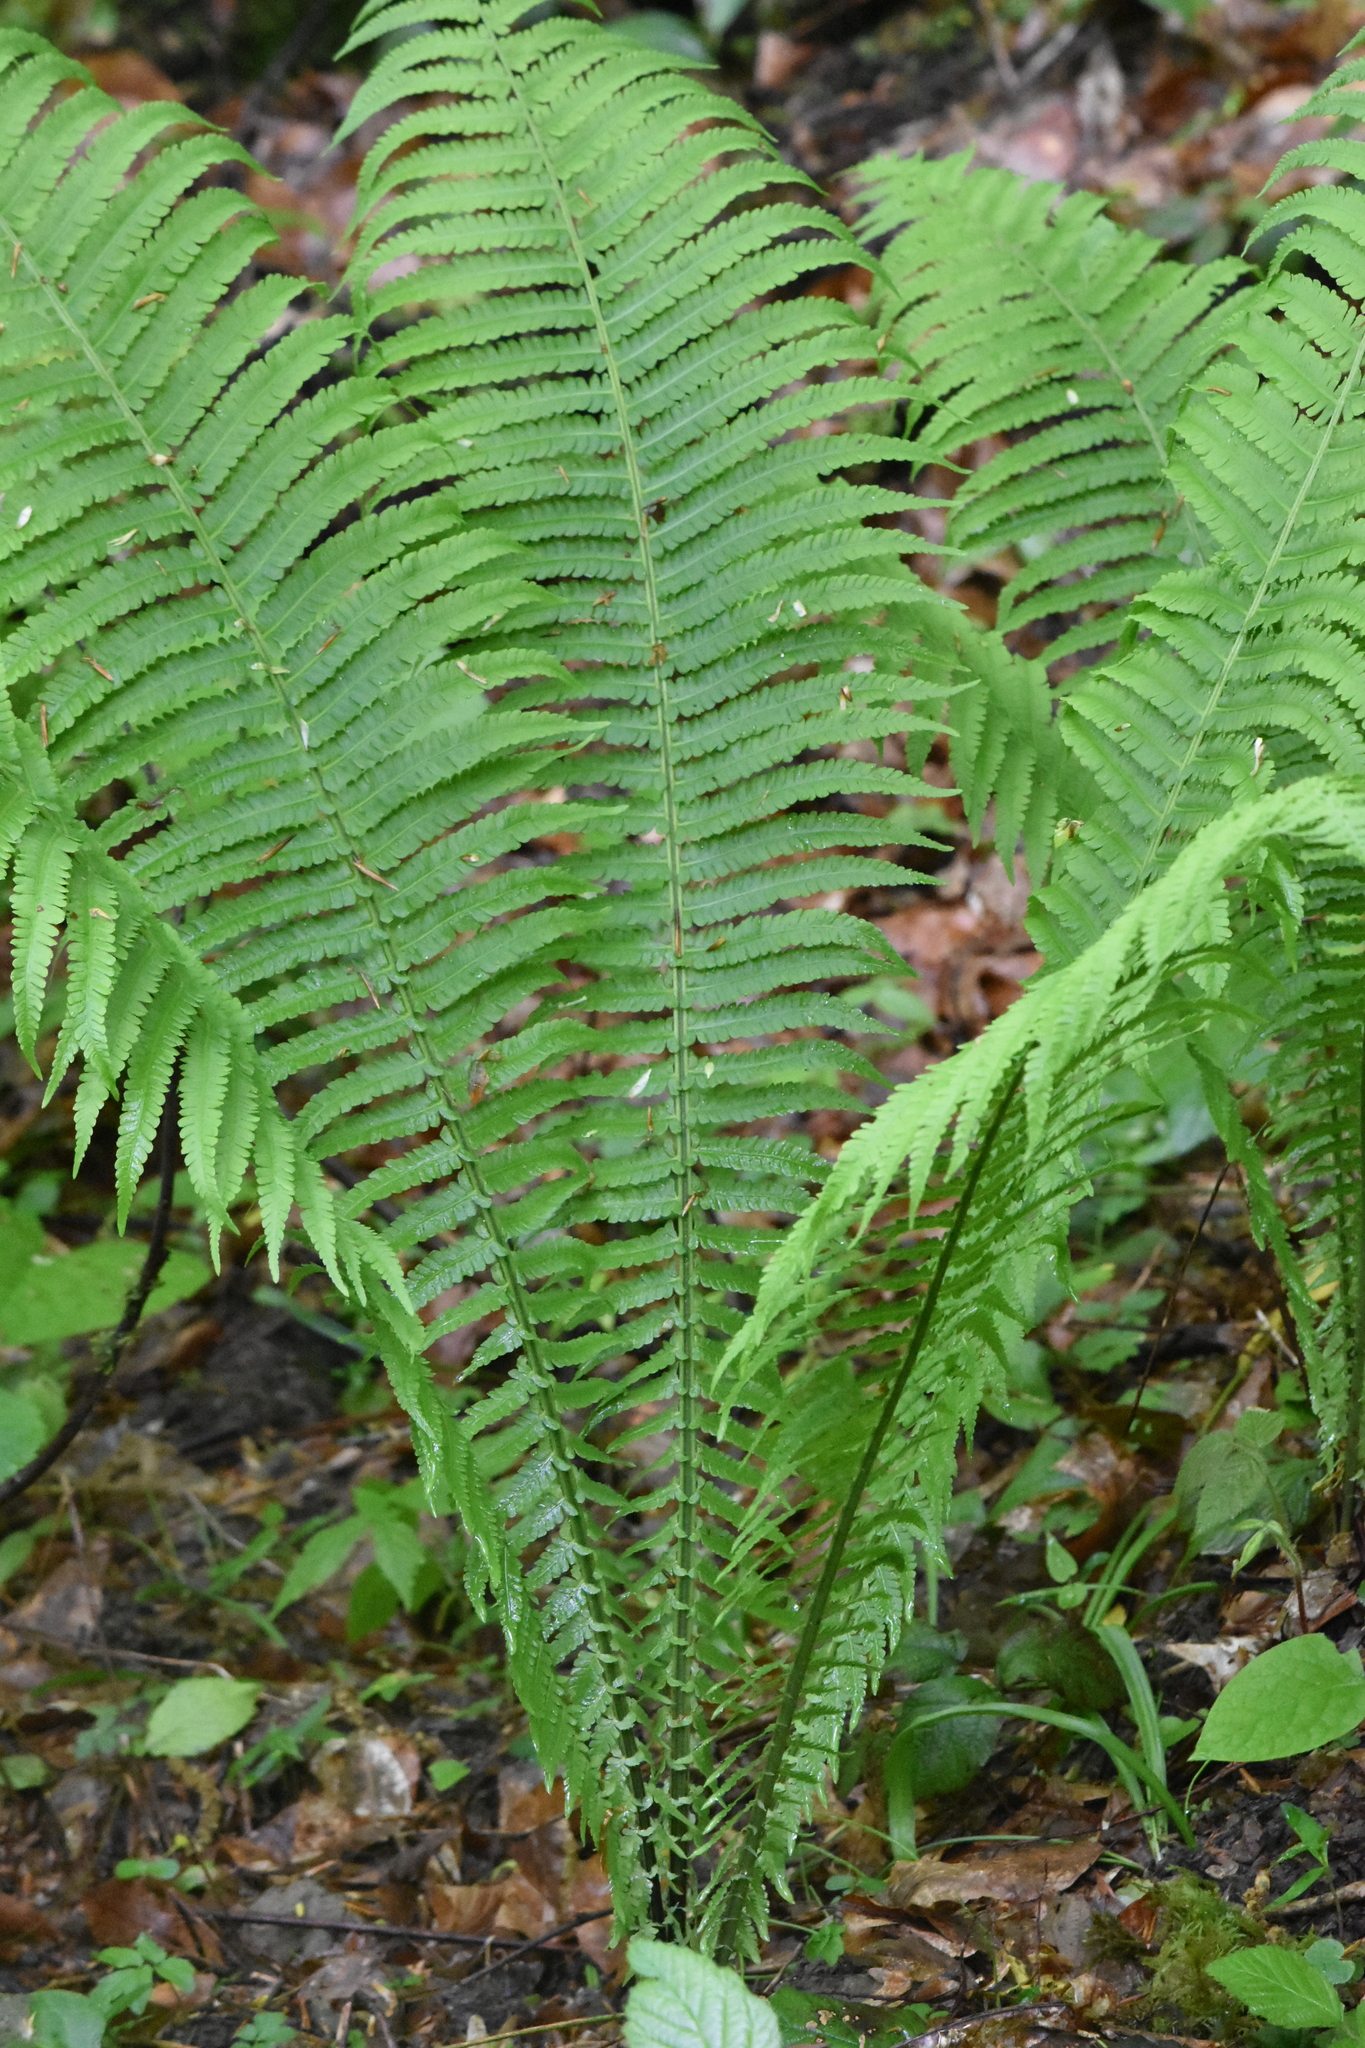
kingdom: Plantae
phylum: Tracheophyta
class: Polypodiopsida
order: Polypodiales
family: Onocleaceae
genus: Matteuccia
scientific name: Matteuccia struthiopteris
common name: Ostrich fern
